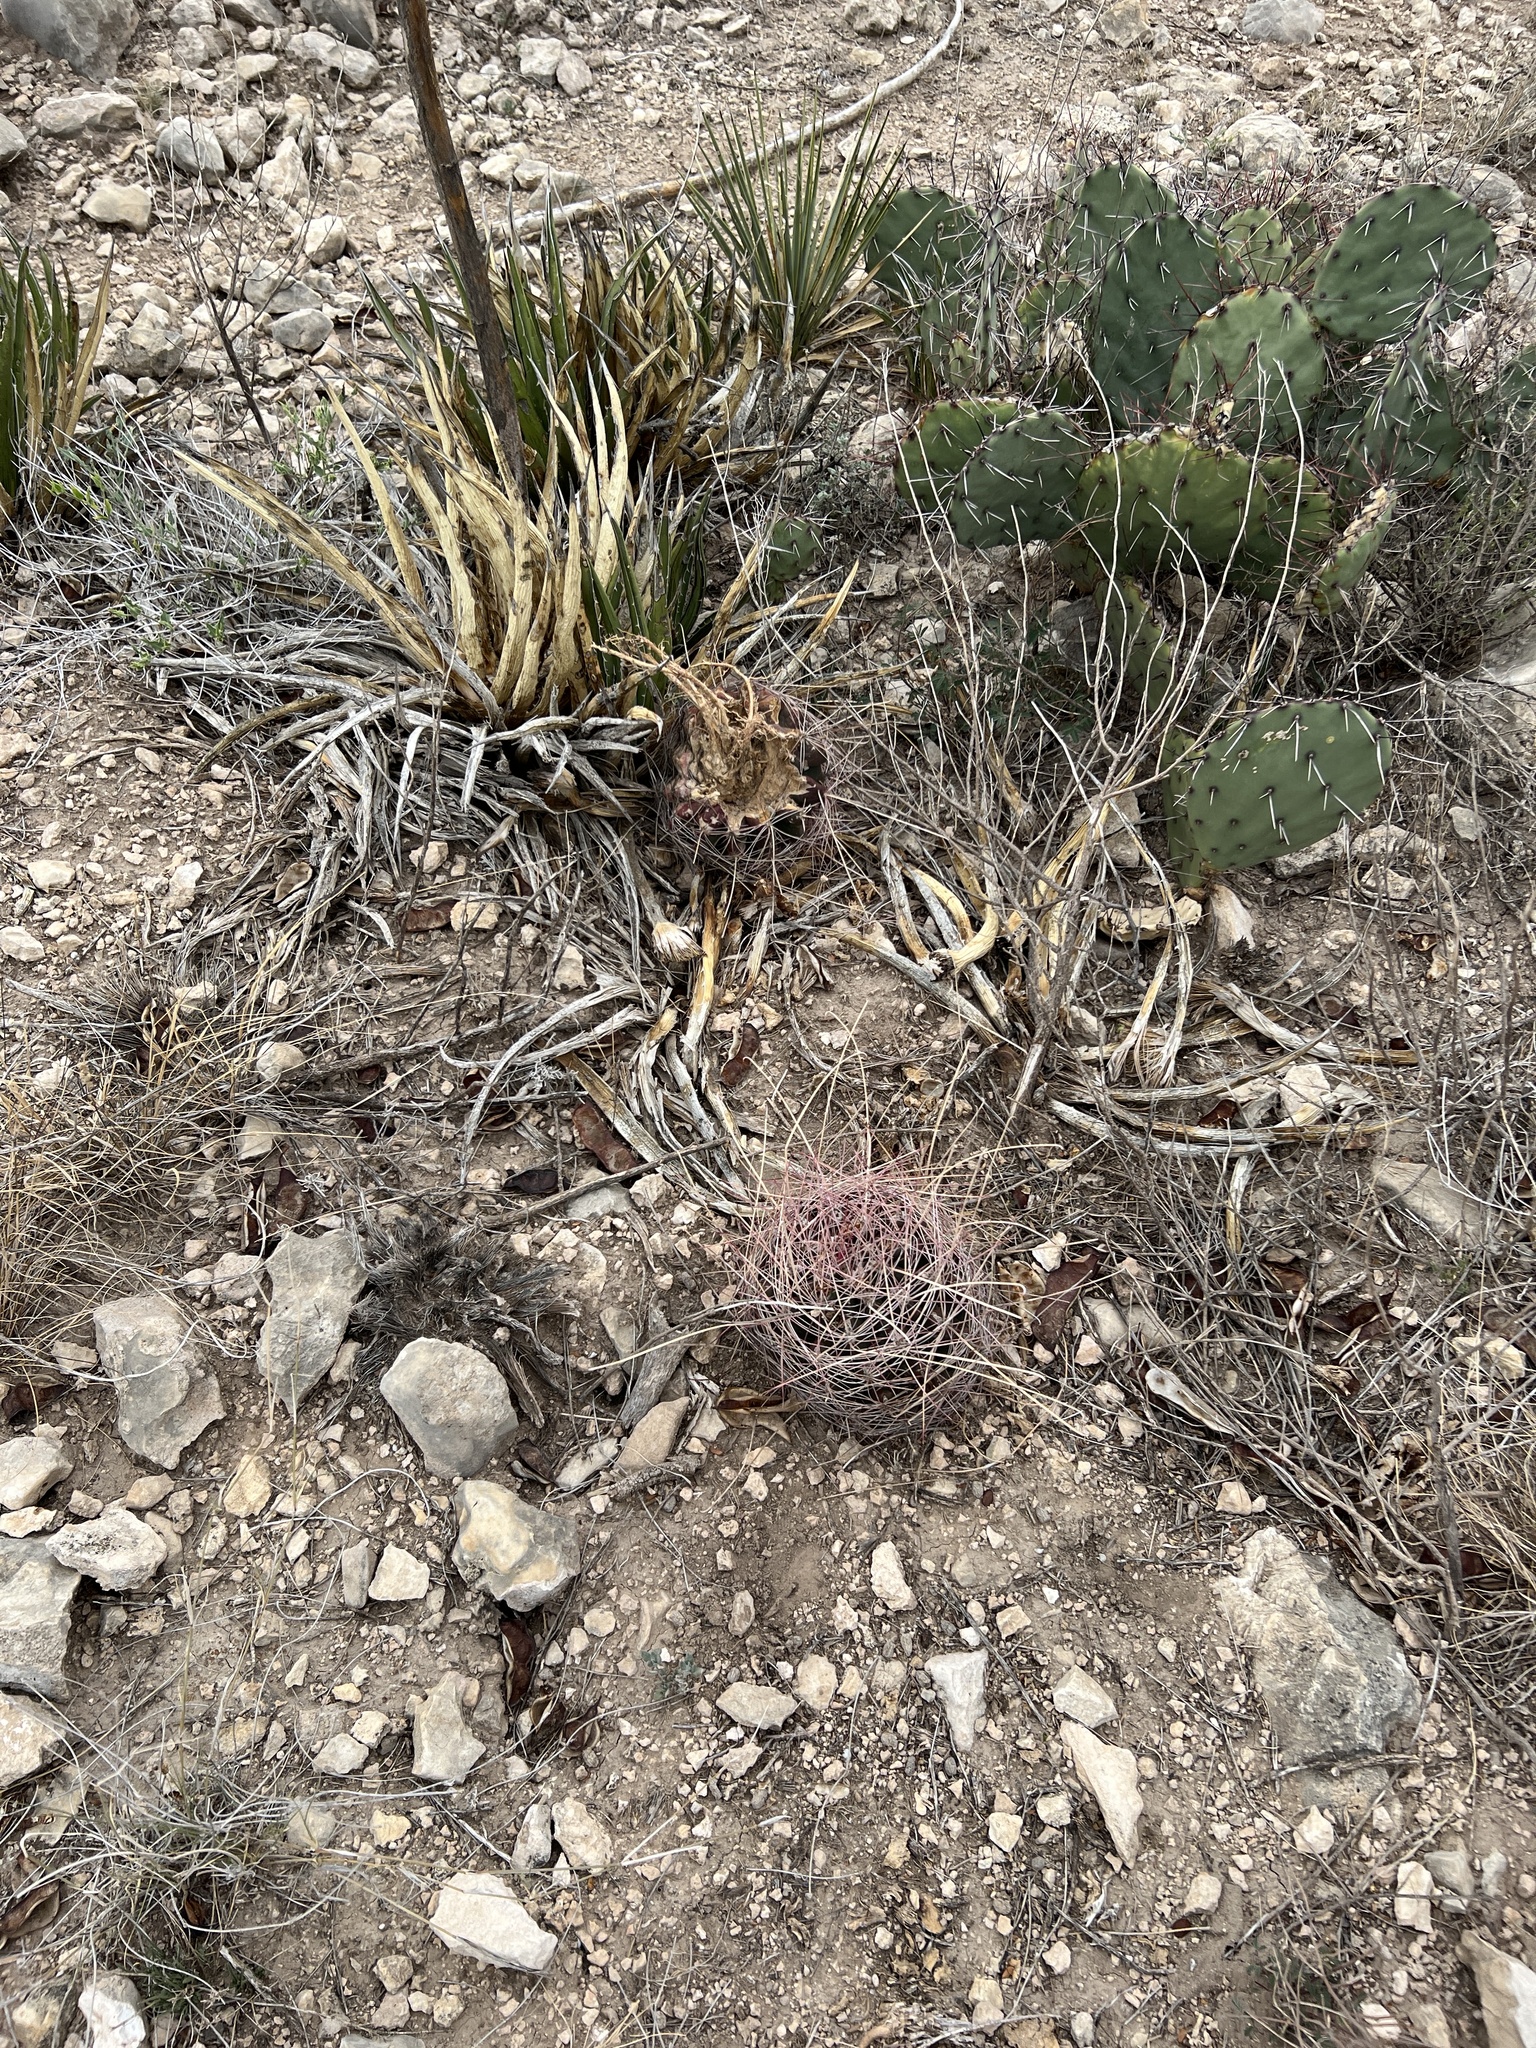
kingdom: Plantae
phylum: Tracheophyta
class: Magnoliopsida
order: Caryophyllales
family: Cactaceae
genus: Bisnaga
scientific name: Bisnaga hamatacantha
